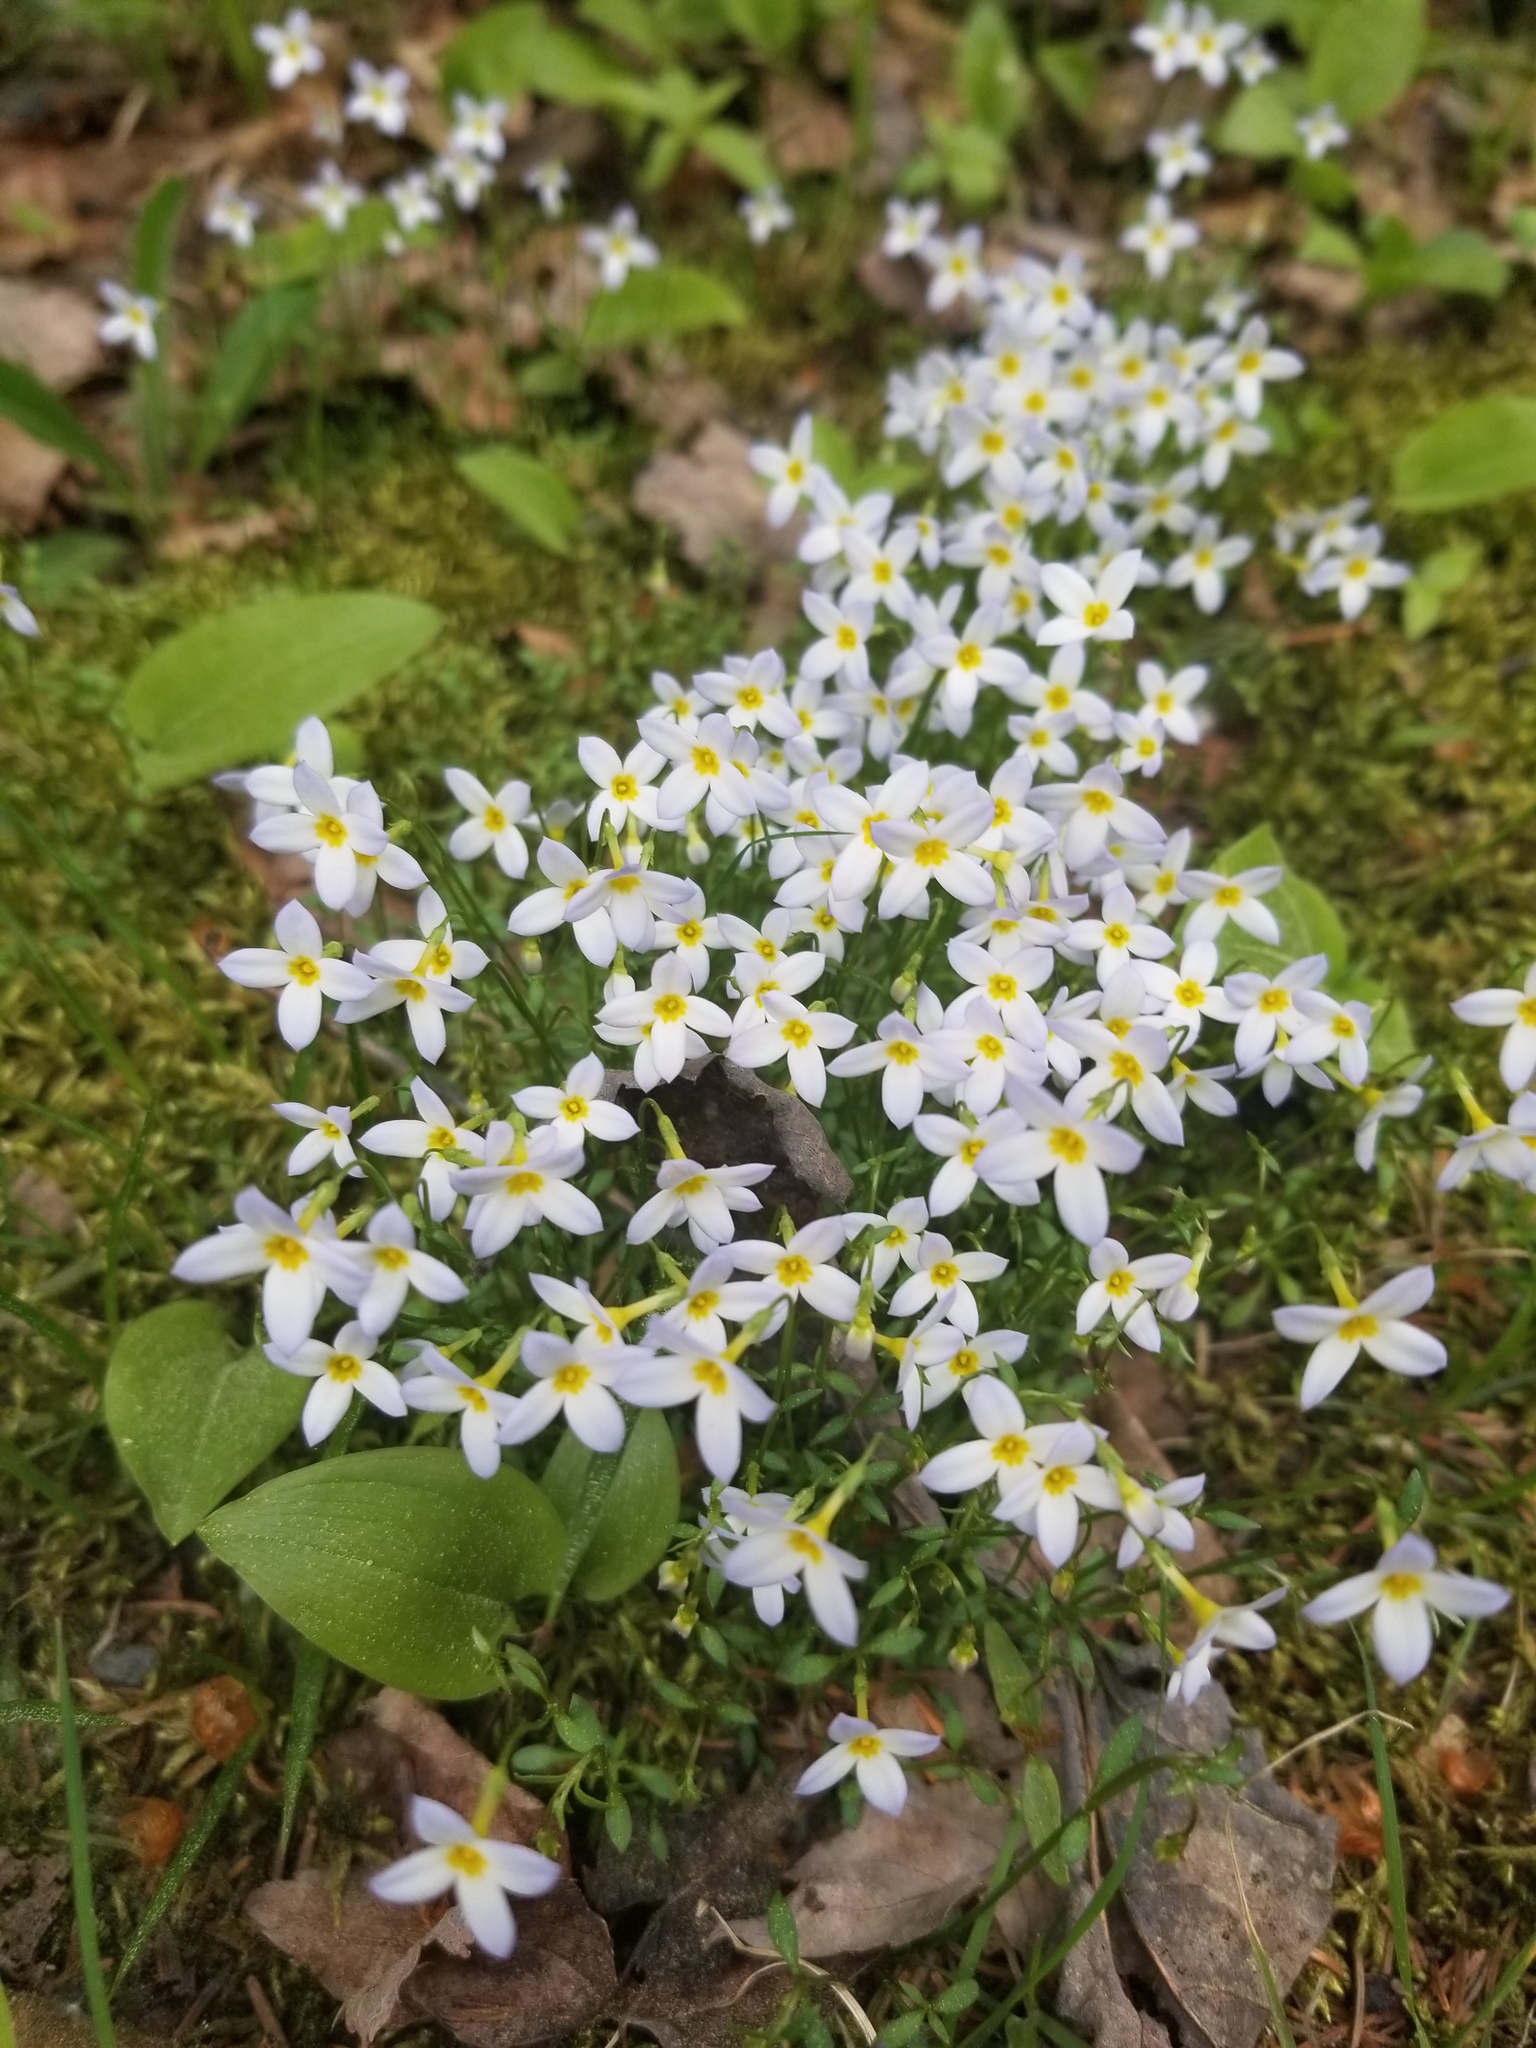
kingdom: Plantae
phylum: Tracheophyta
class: Magnoliopsida
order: Gentianales
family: Rubiaceae
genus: Houstonia
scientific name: Houstonia caerulea
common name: Bluets
